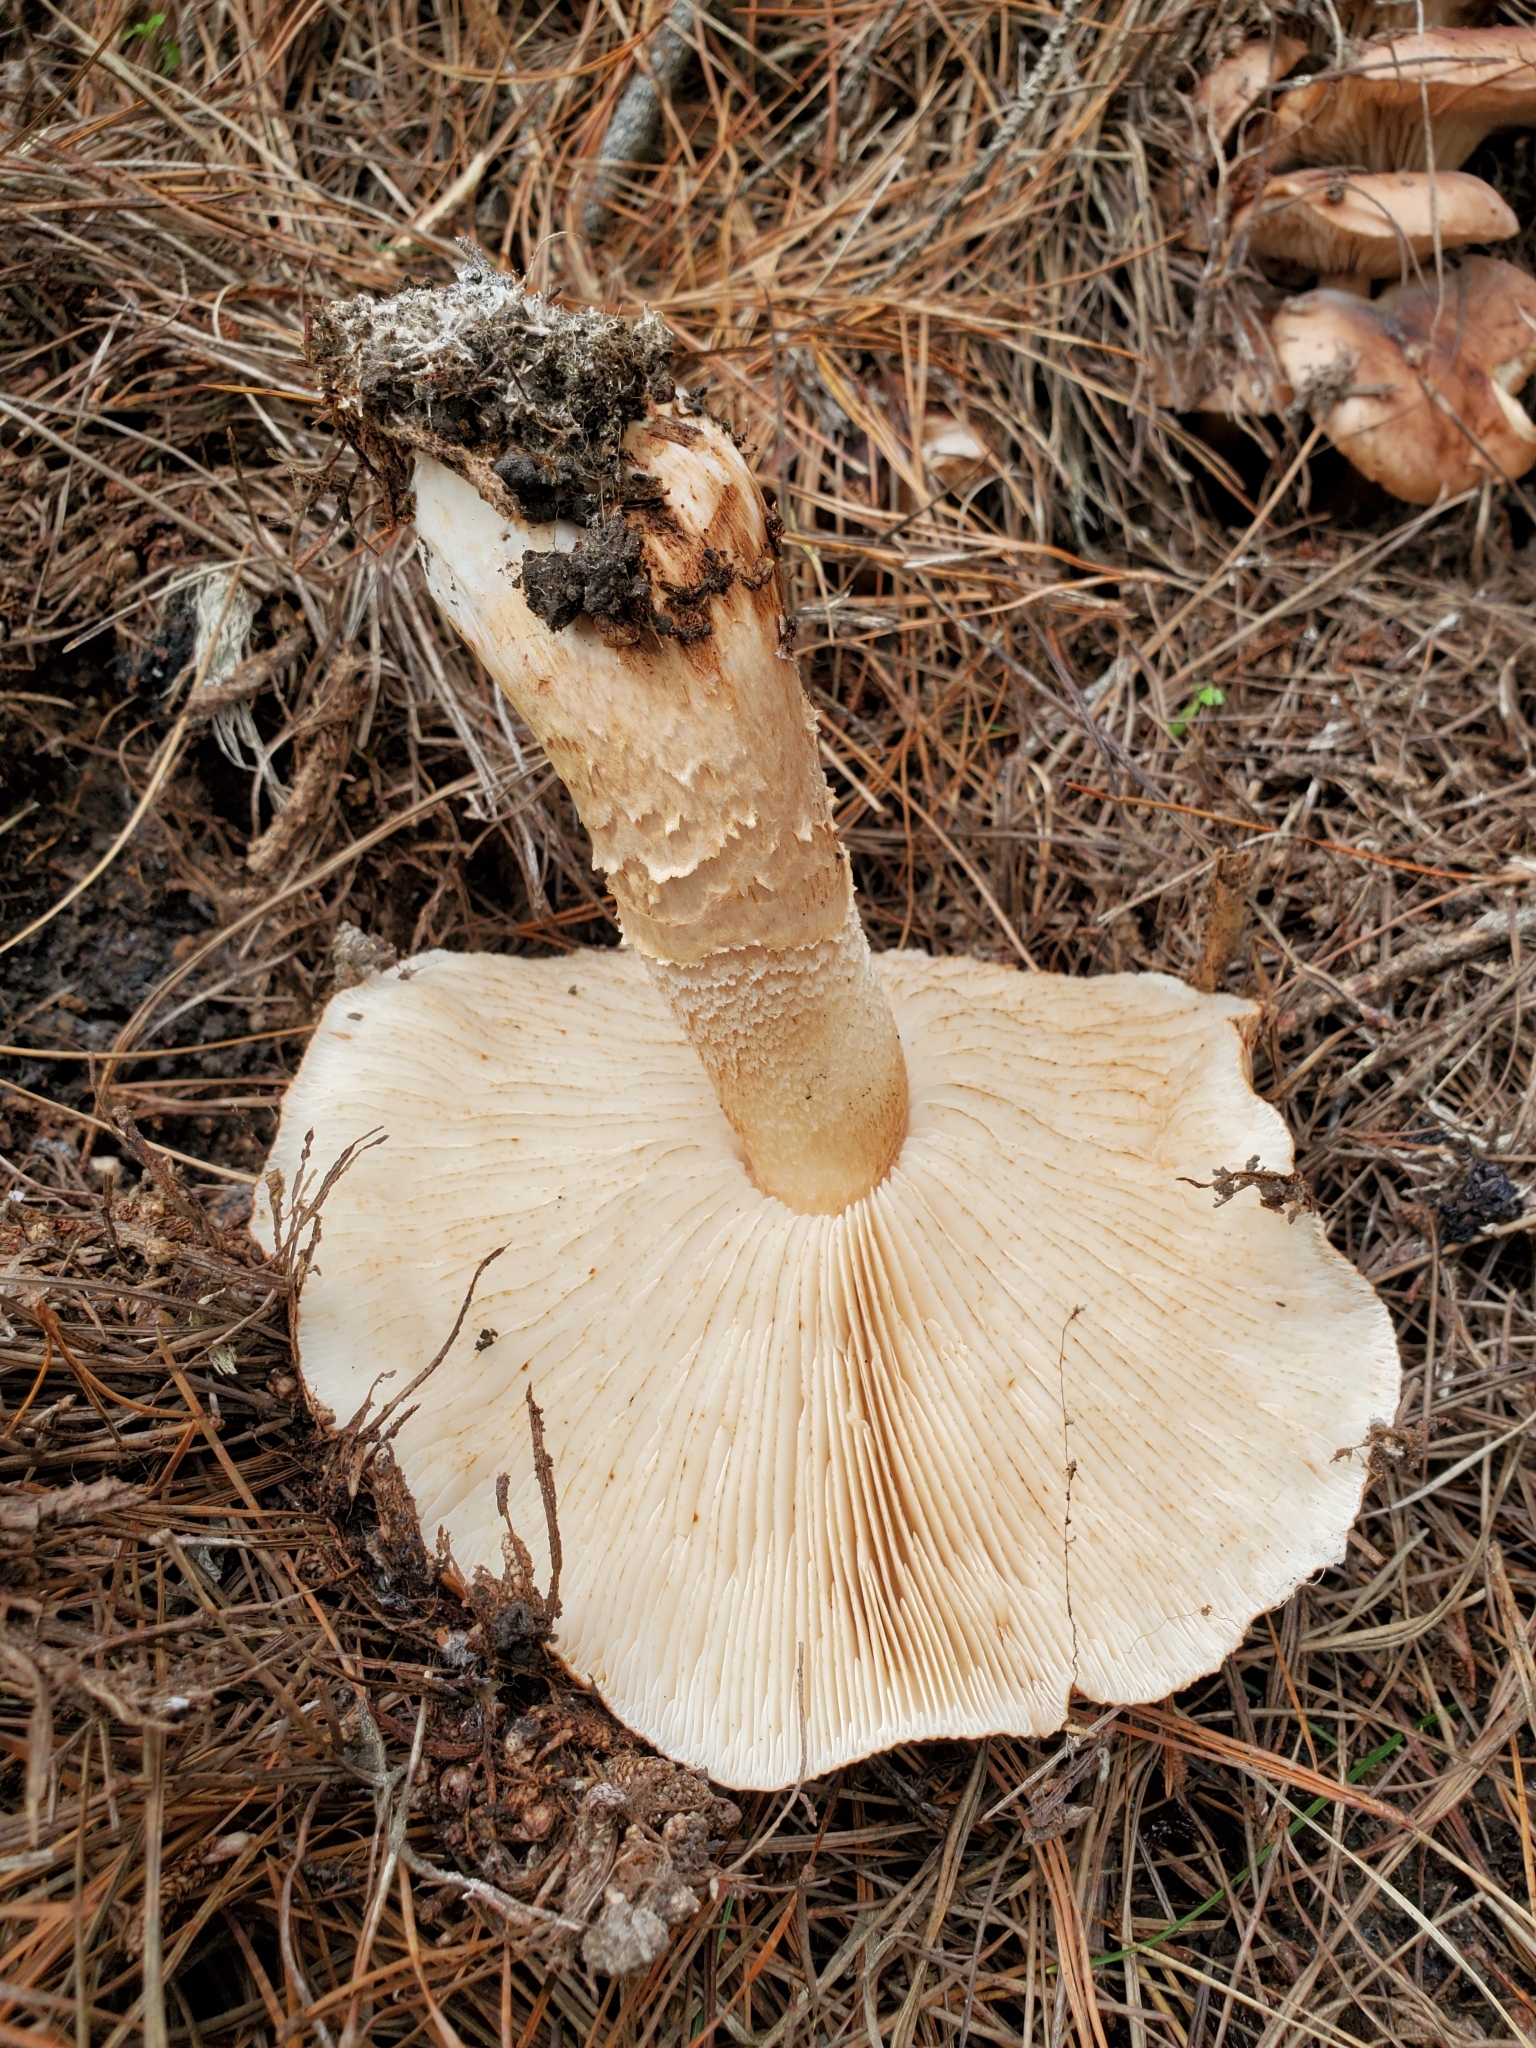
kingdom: Fungi
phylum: Basidiomycota
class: Agaricomycetes
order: Agaricales
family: Tricholomataceae
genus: Tricholoma
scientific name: Tricholoma albobrunneum
